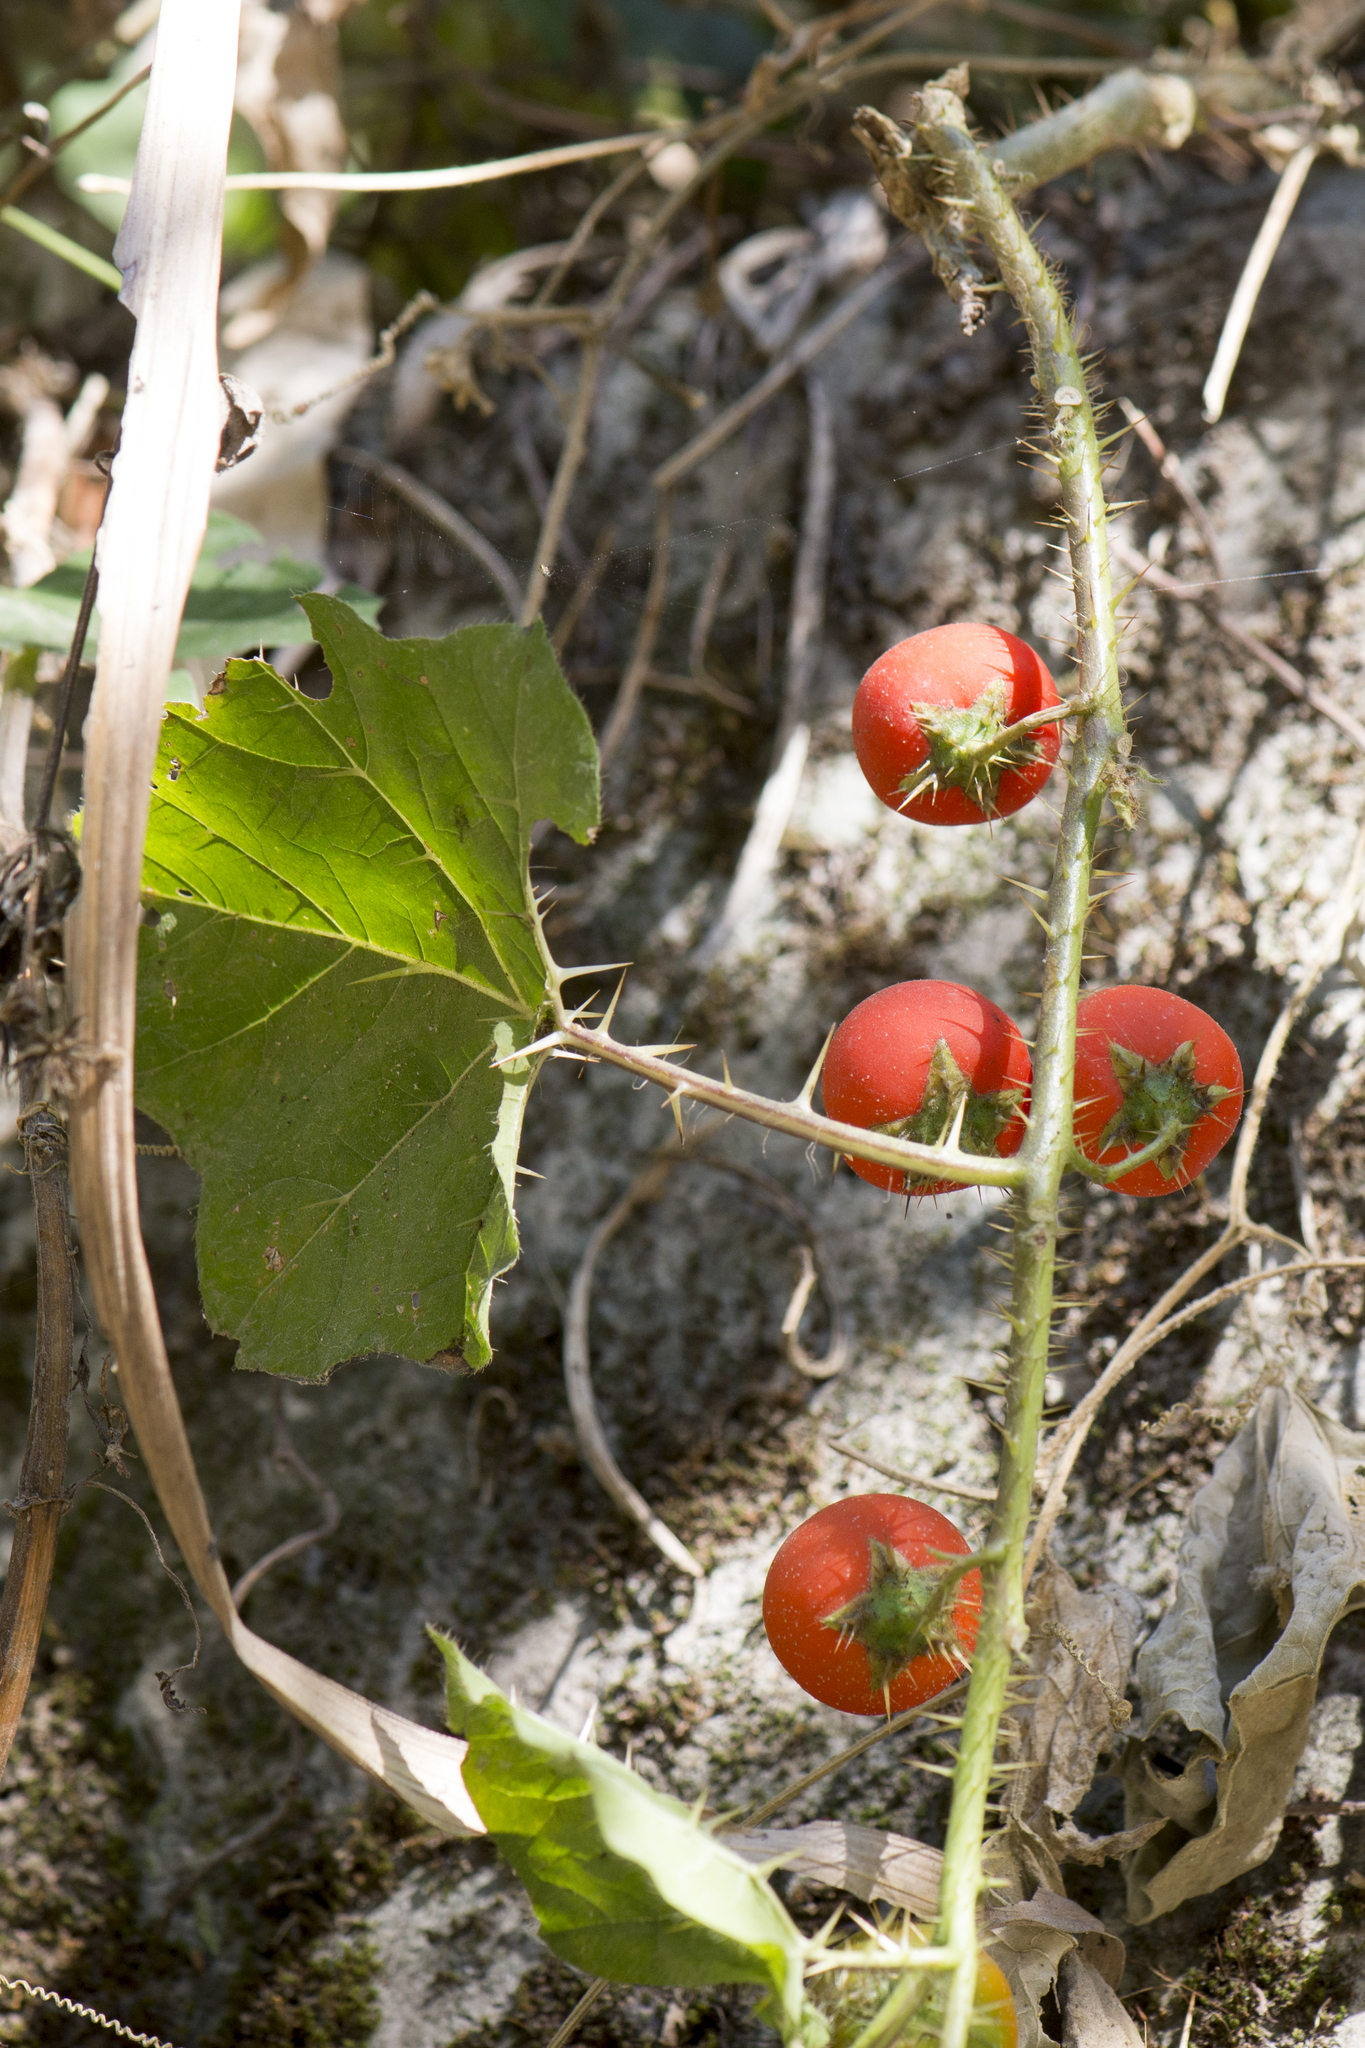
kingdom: Plantae
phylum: Tracheophyta
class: Magnoliopsida
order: Solanales
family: Solanaceae
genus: Solanum
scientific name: Solanum capsicoides
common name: Cockroach berry
